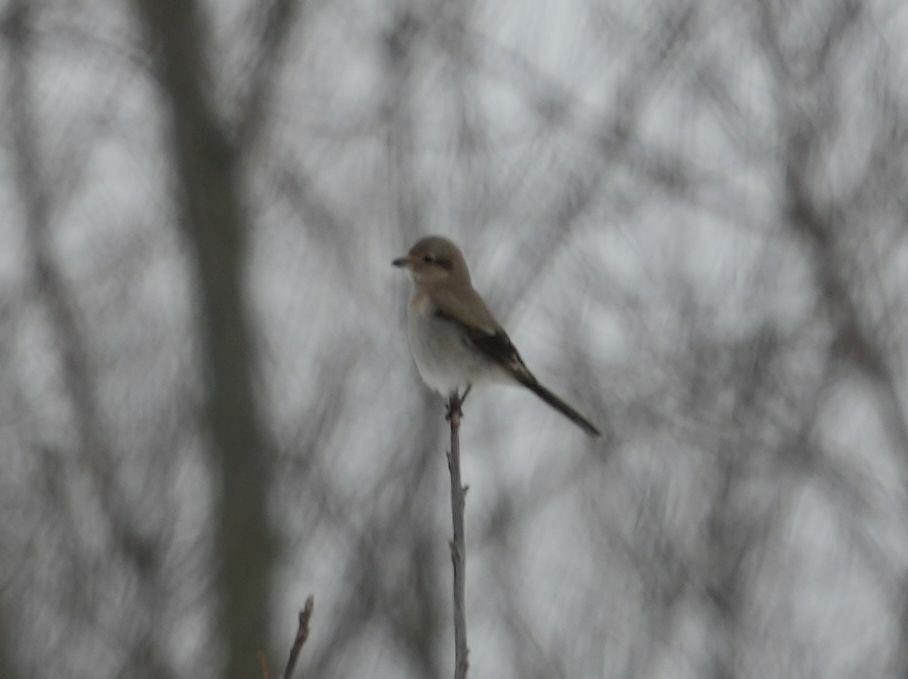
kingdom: Animalia
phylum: Chordata
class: Aves
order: Passeriformes
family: Laniidae
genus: Lanius
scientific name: Lanius borealis
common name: Northern shrike
